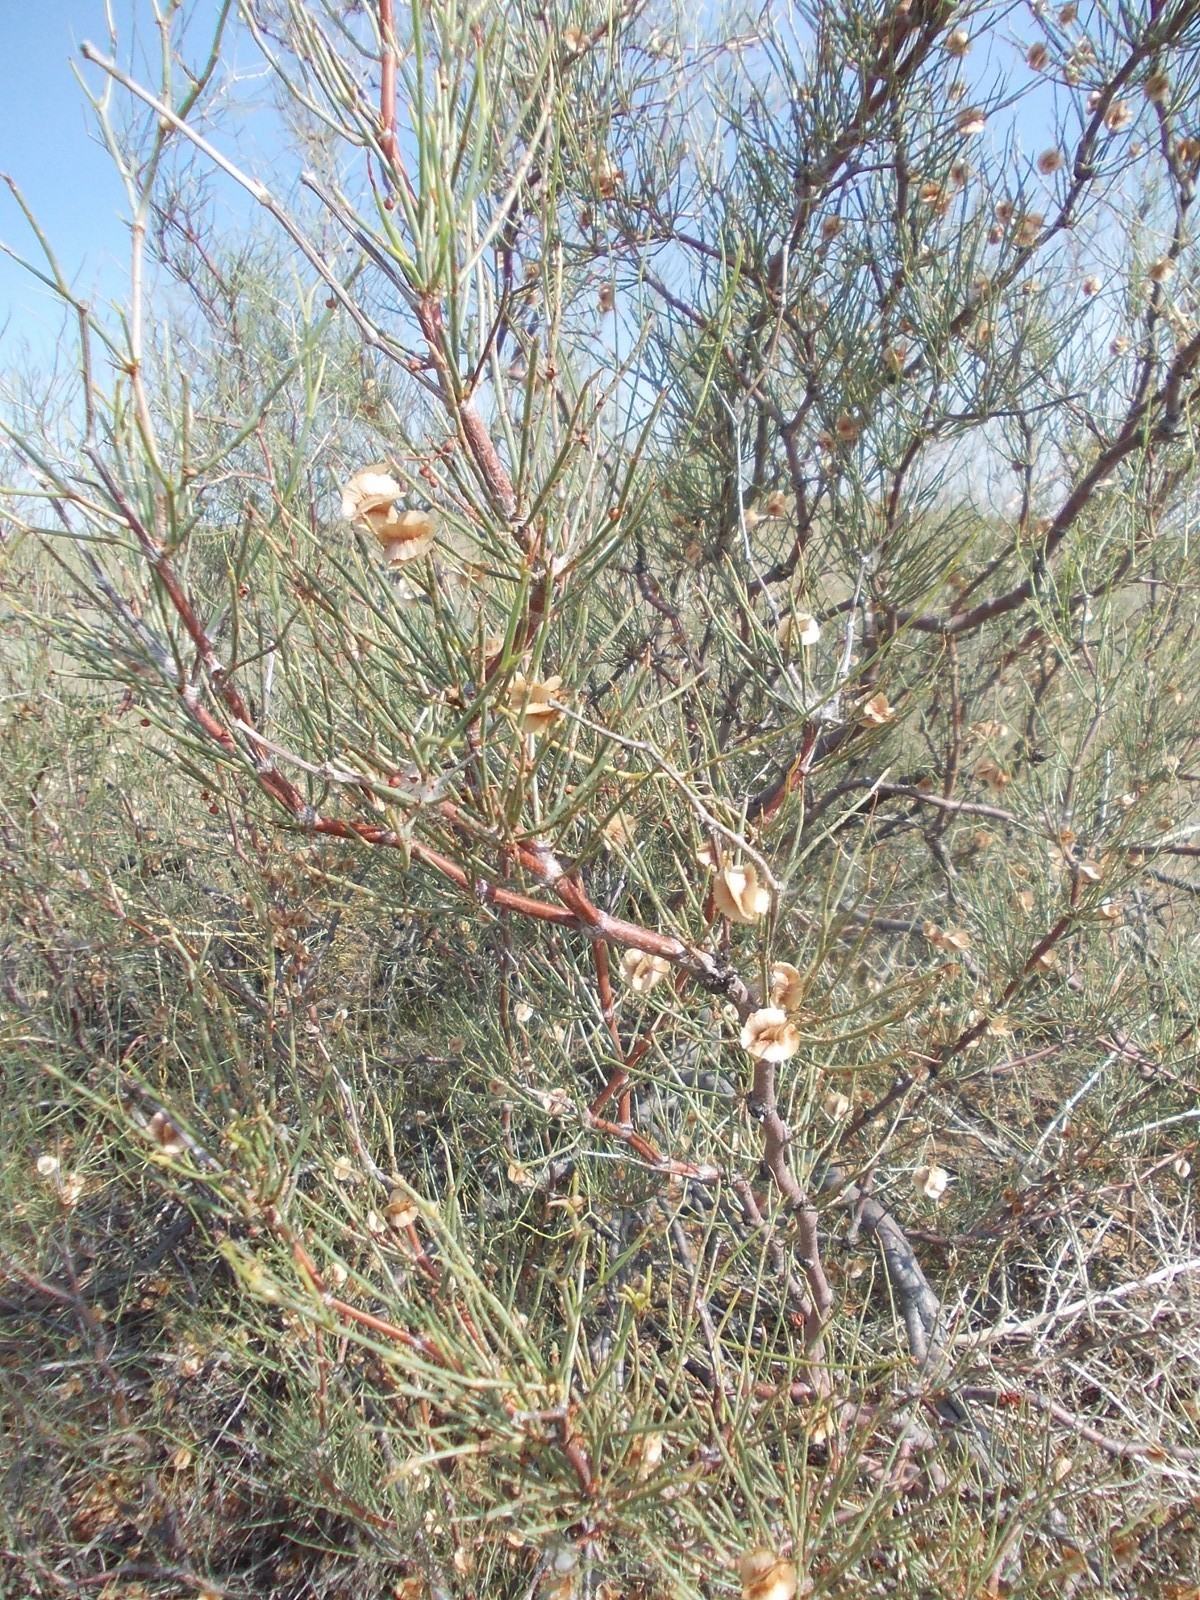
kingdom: Plantae
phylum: Tracheophyta
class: Magnoliopsida
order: Caryophyllales
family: Polygonaceae
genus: Calligonum
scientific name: Calligonum aphyllum
